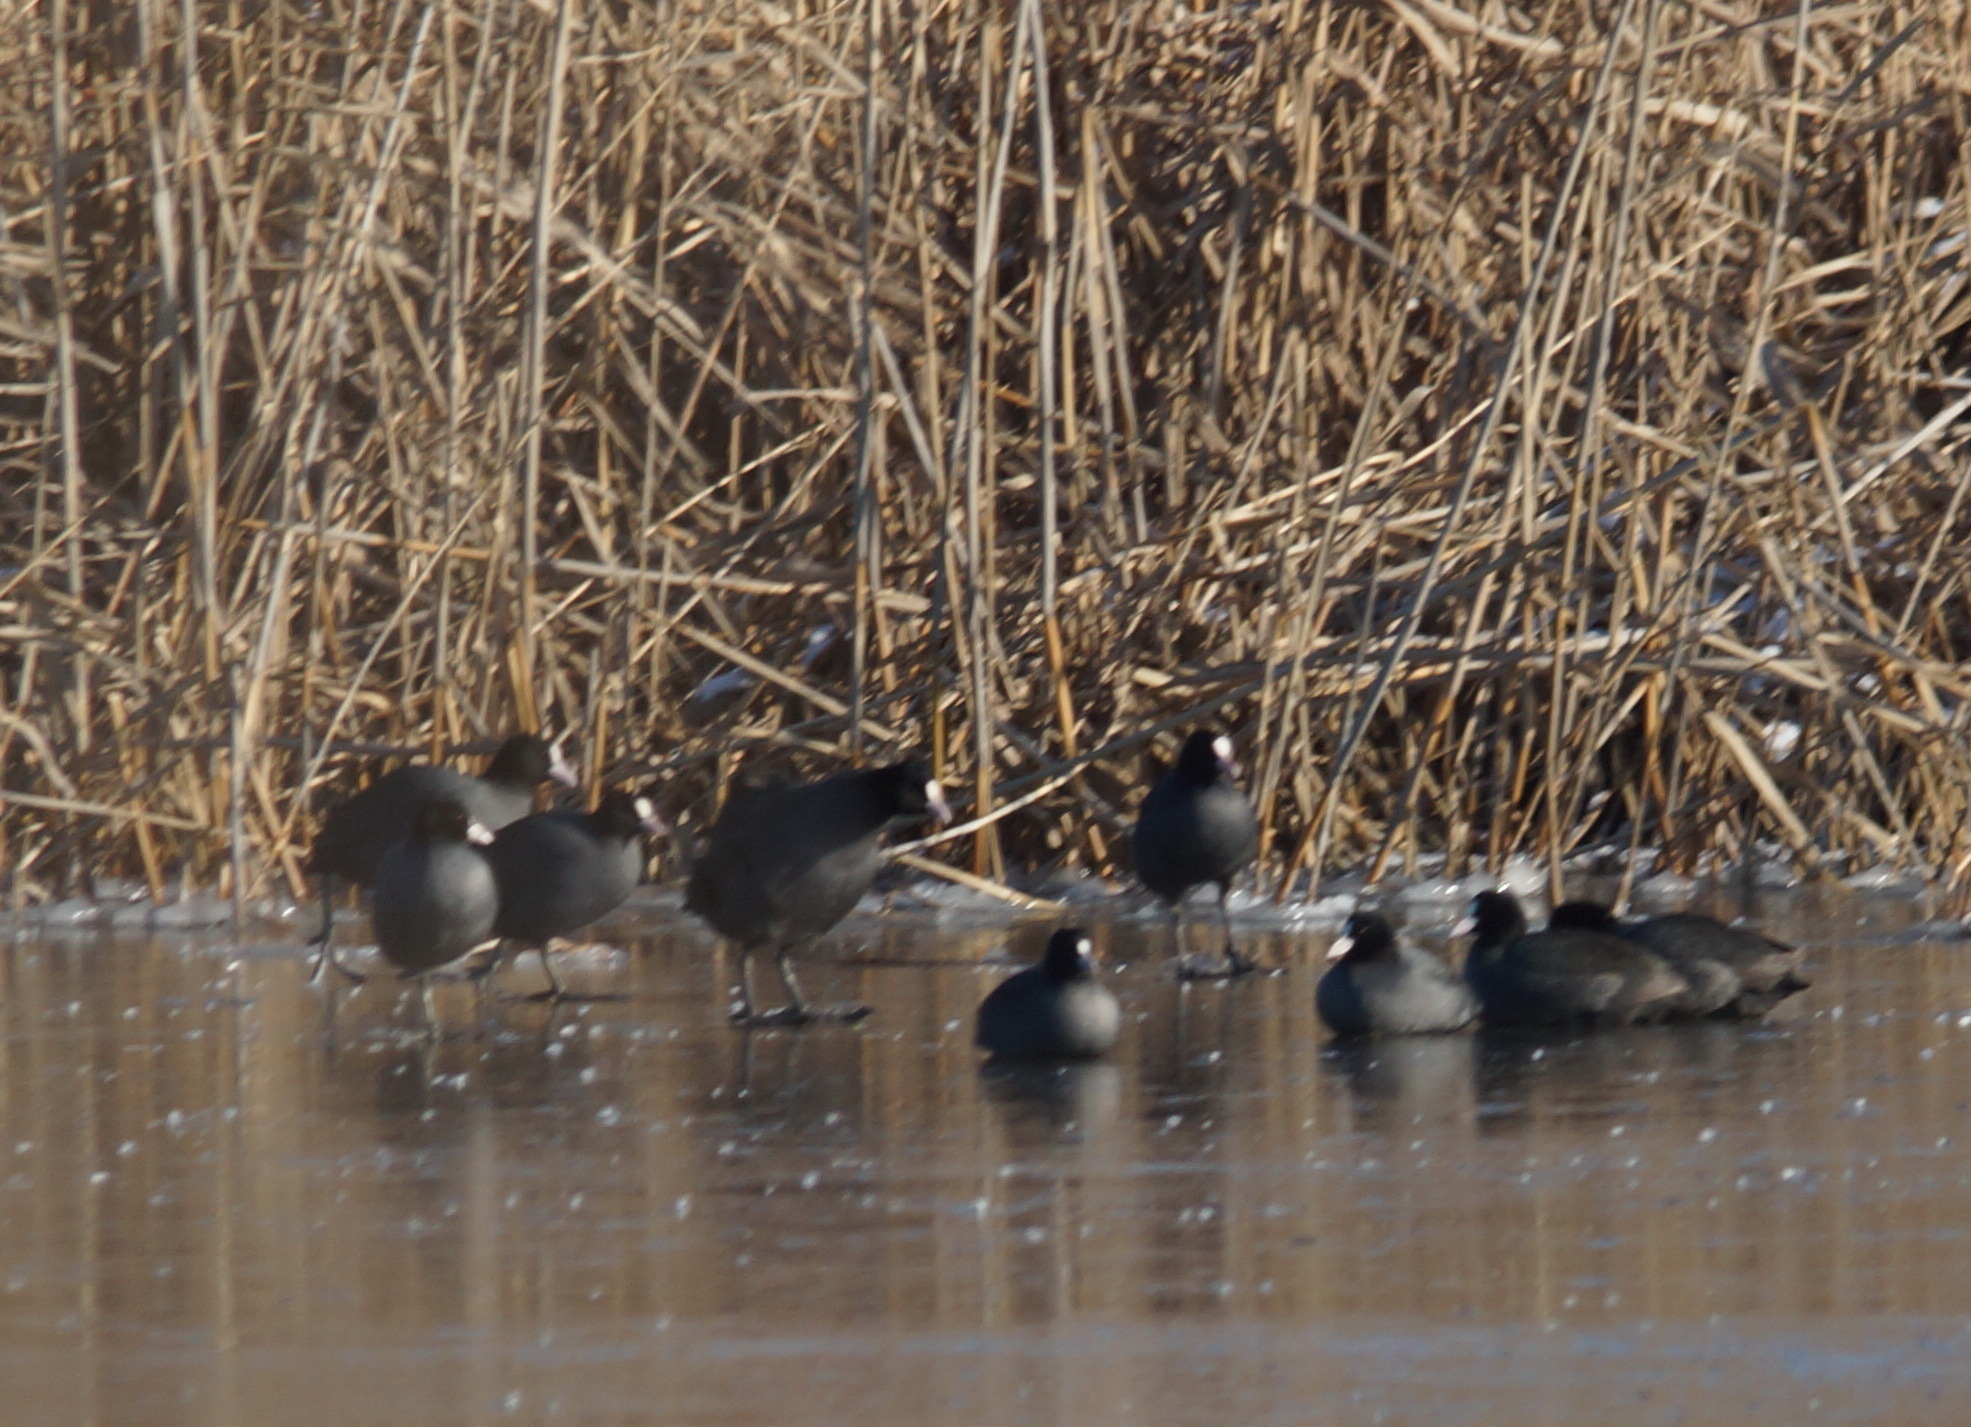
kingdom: Animalia
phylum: Chordata
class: Aves
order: Gruiformes
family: Rallidae
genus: Fulica
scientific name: Fulica atra
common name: Eurasian coot
